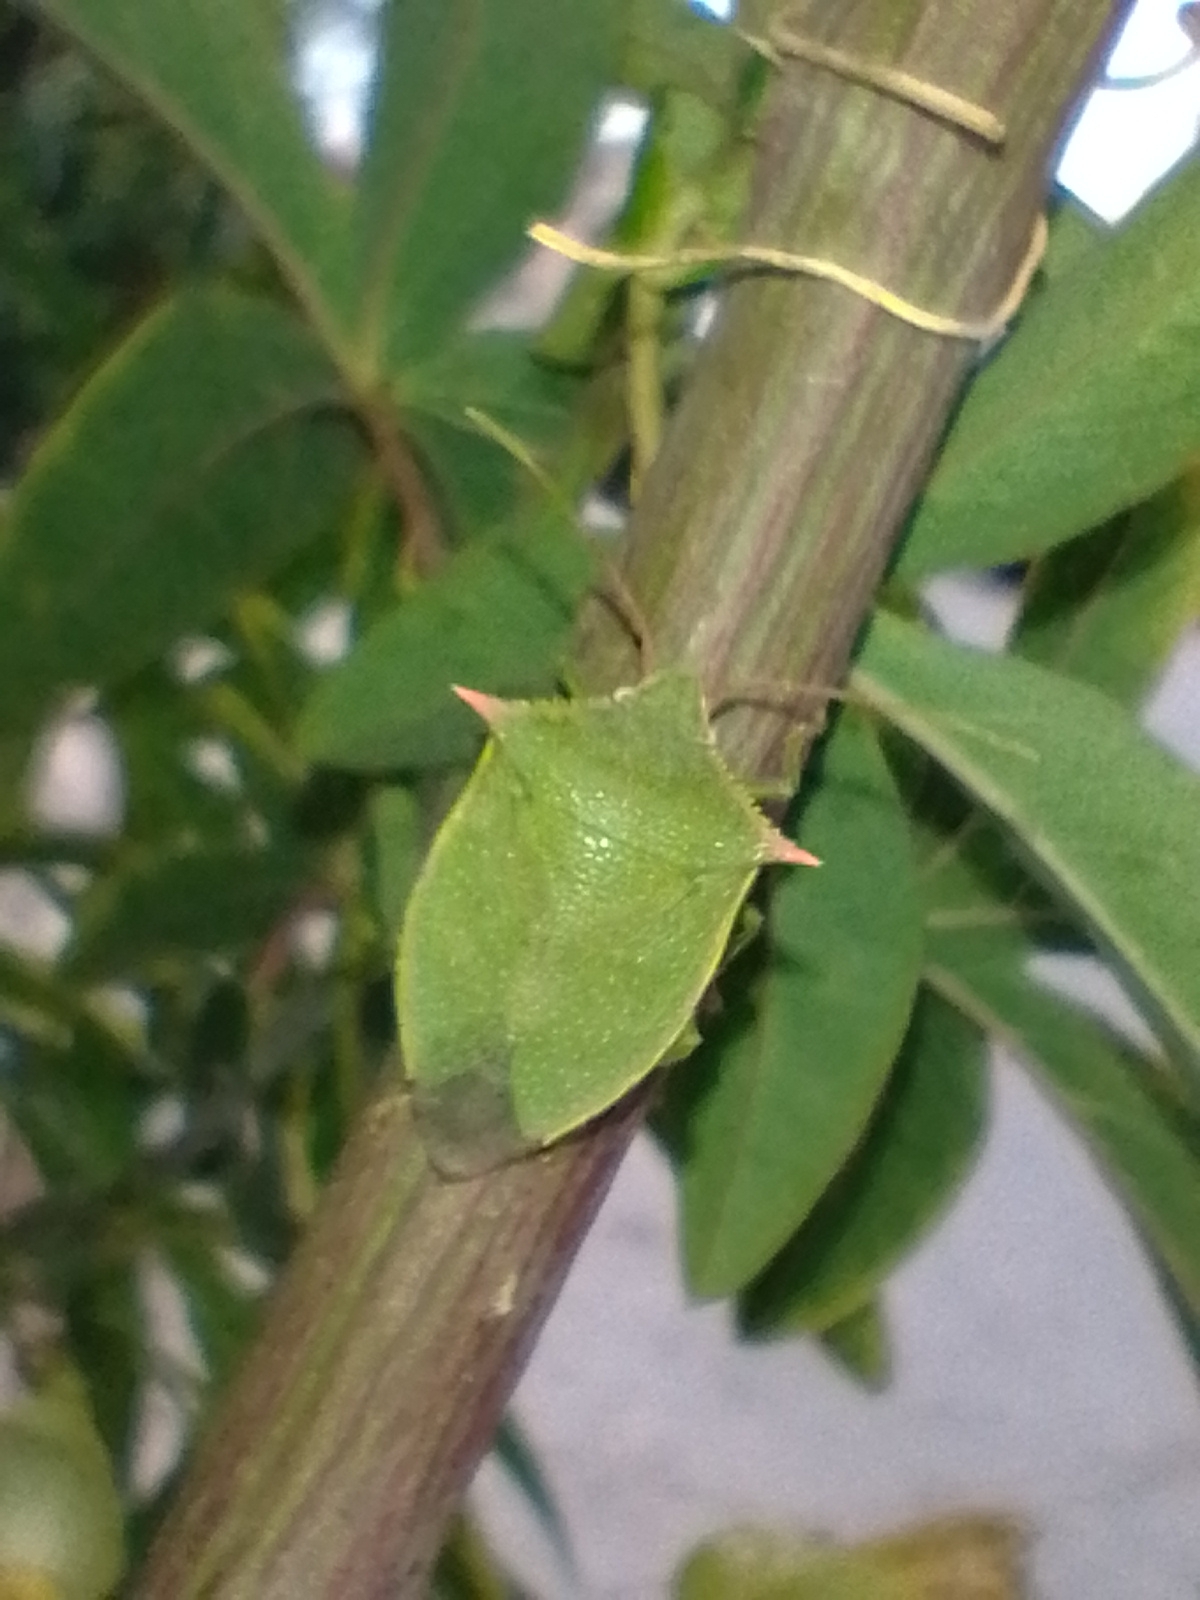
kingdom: Animalia
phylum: Arthropoda
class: Insecta
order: Hemiptera
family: Pentatomidae
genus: Loxa
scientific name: Loxa deducta
